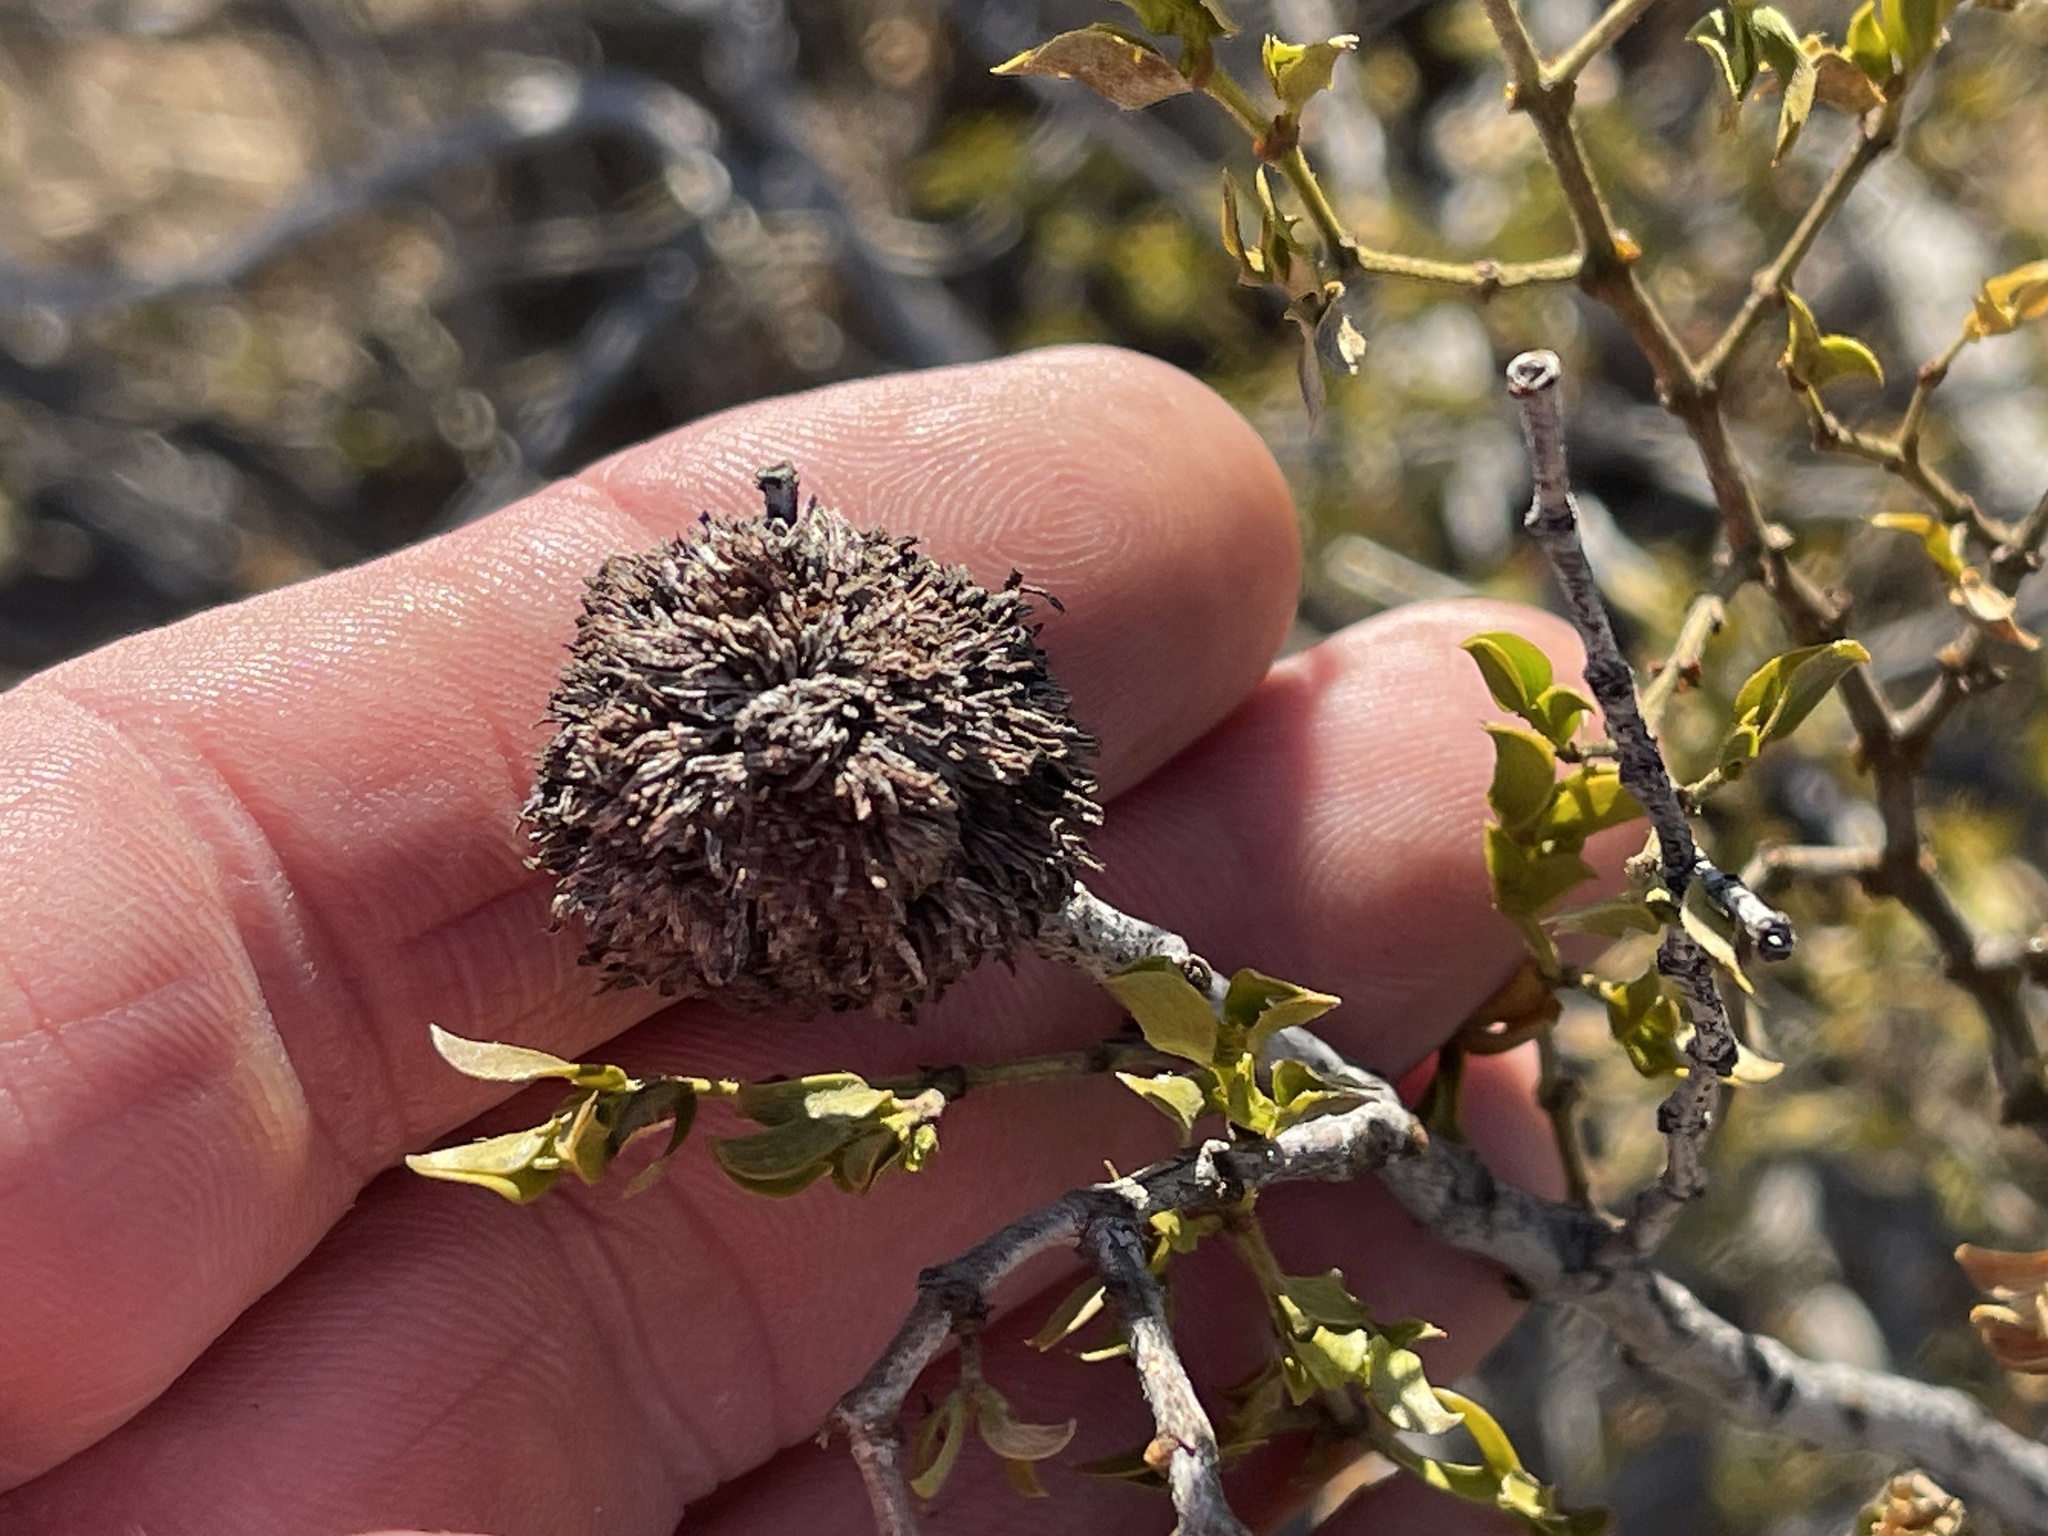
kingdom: Animalia
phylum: Arthropoda
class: Insecta
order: Diptera
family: Cecidomyiidae
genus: Asphondylia
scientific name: Asphondylia auripila
